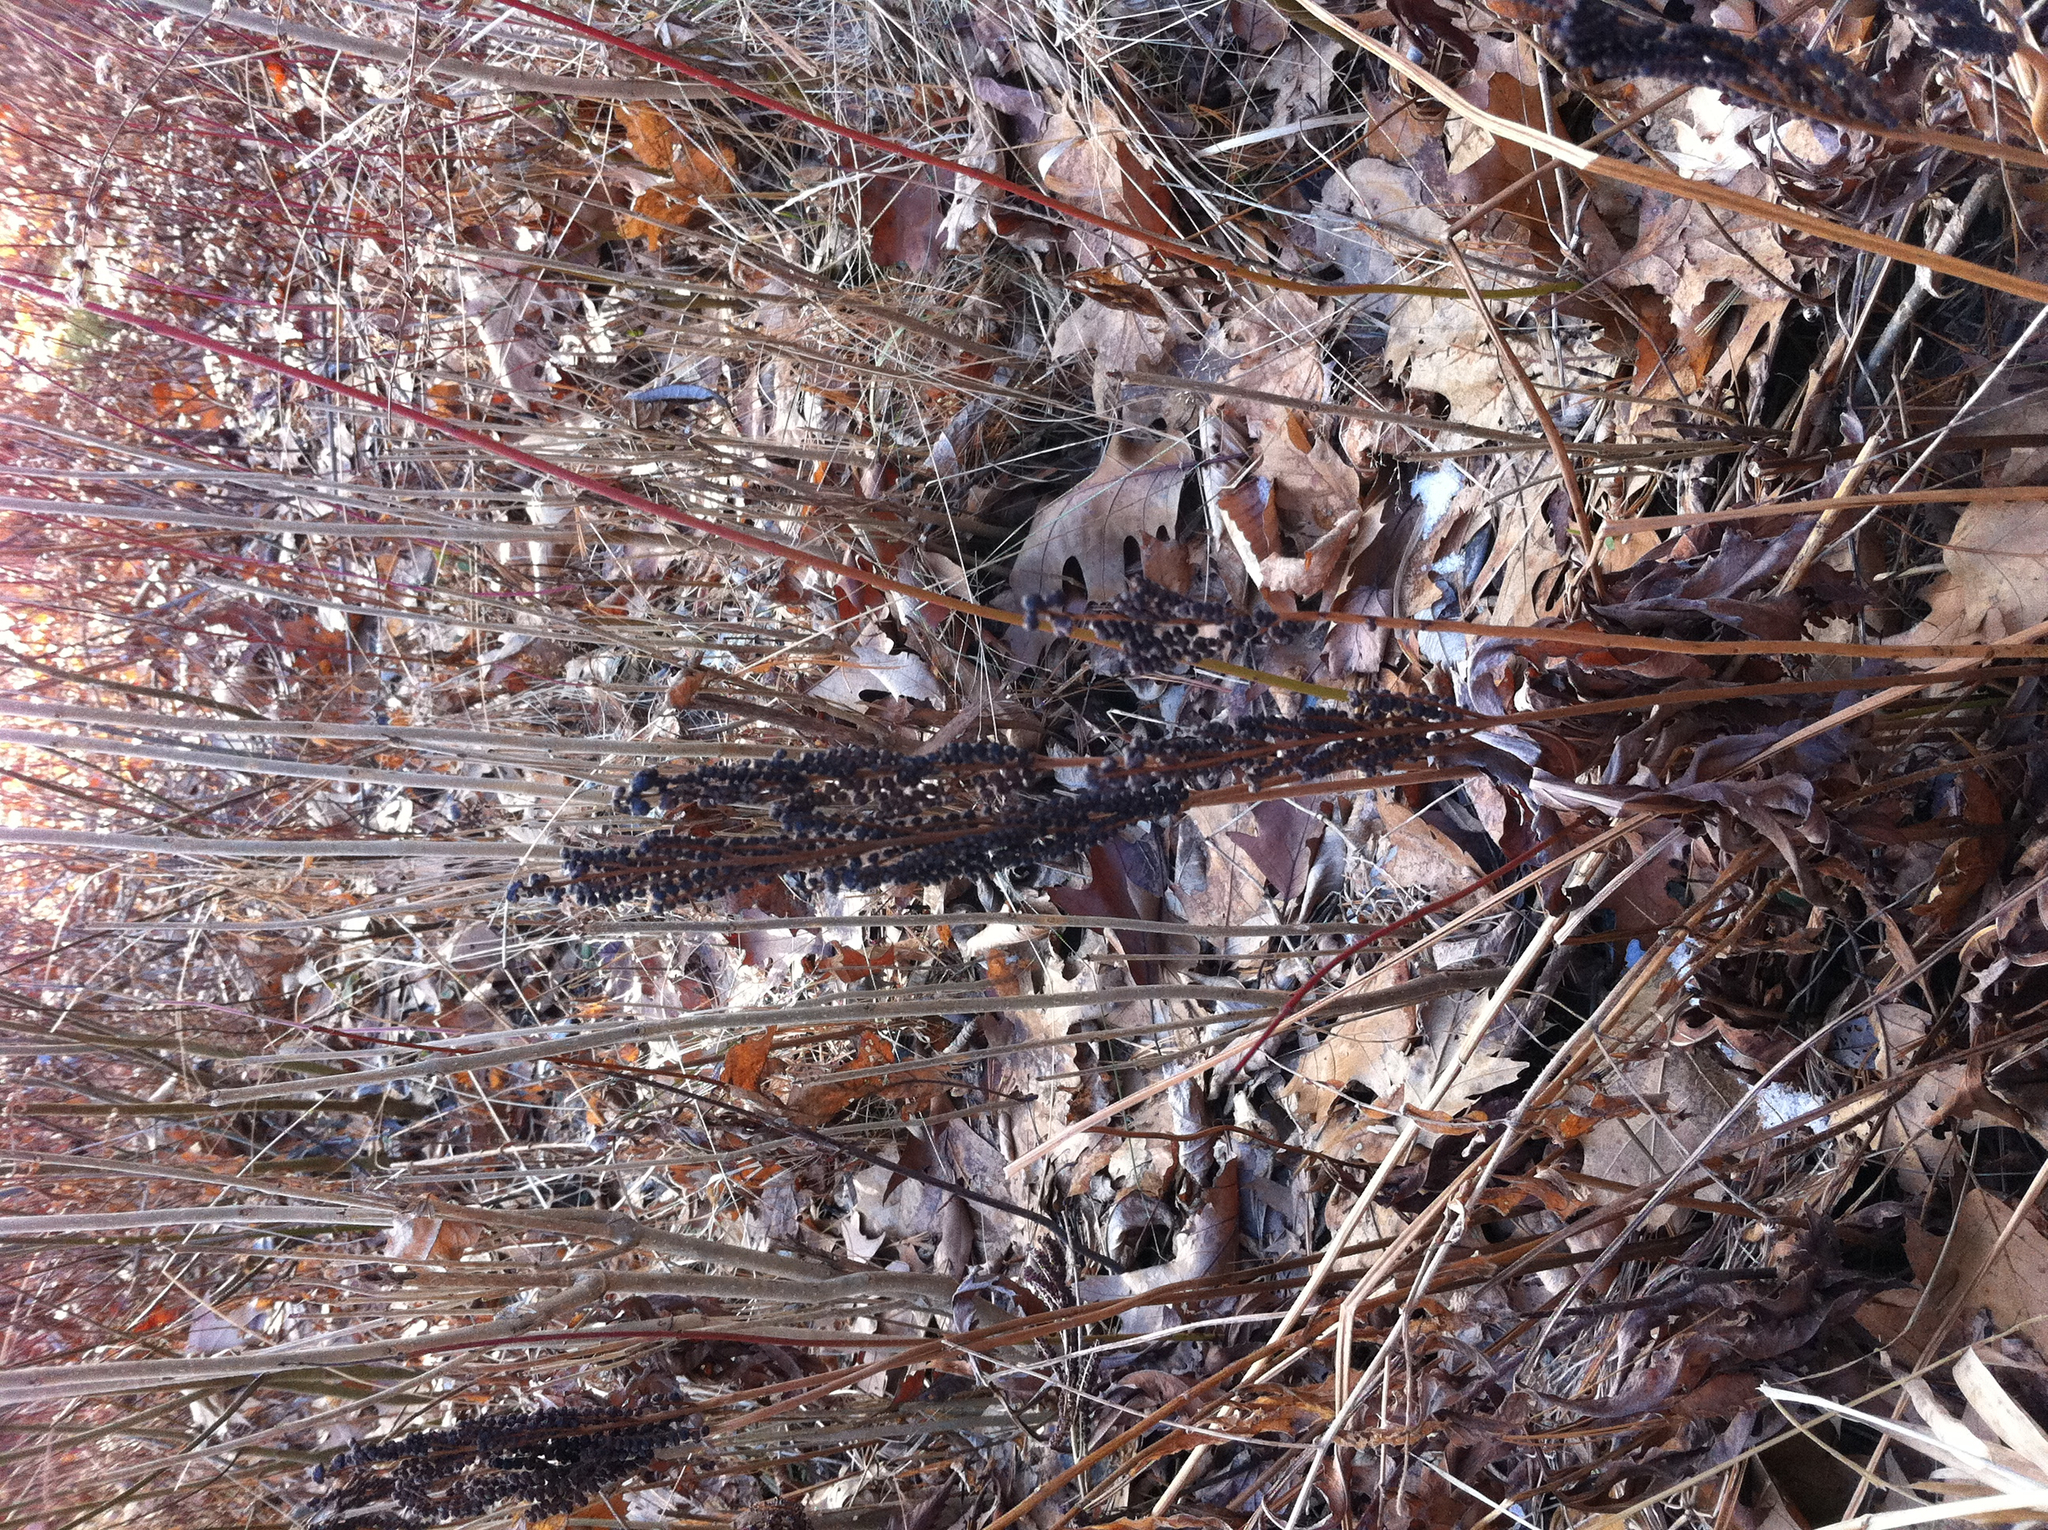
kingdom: Plantae
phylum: Tracheophyta
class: Polypodiopsida
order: Polypodiales
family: Onocleaceae
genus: Onoclea
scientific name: Onoclea sensibilis
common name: Sensitive fern
